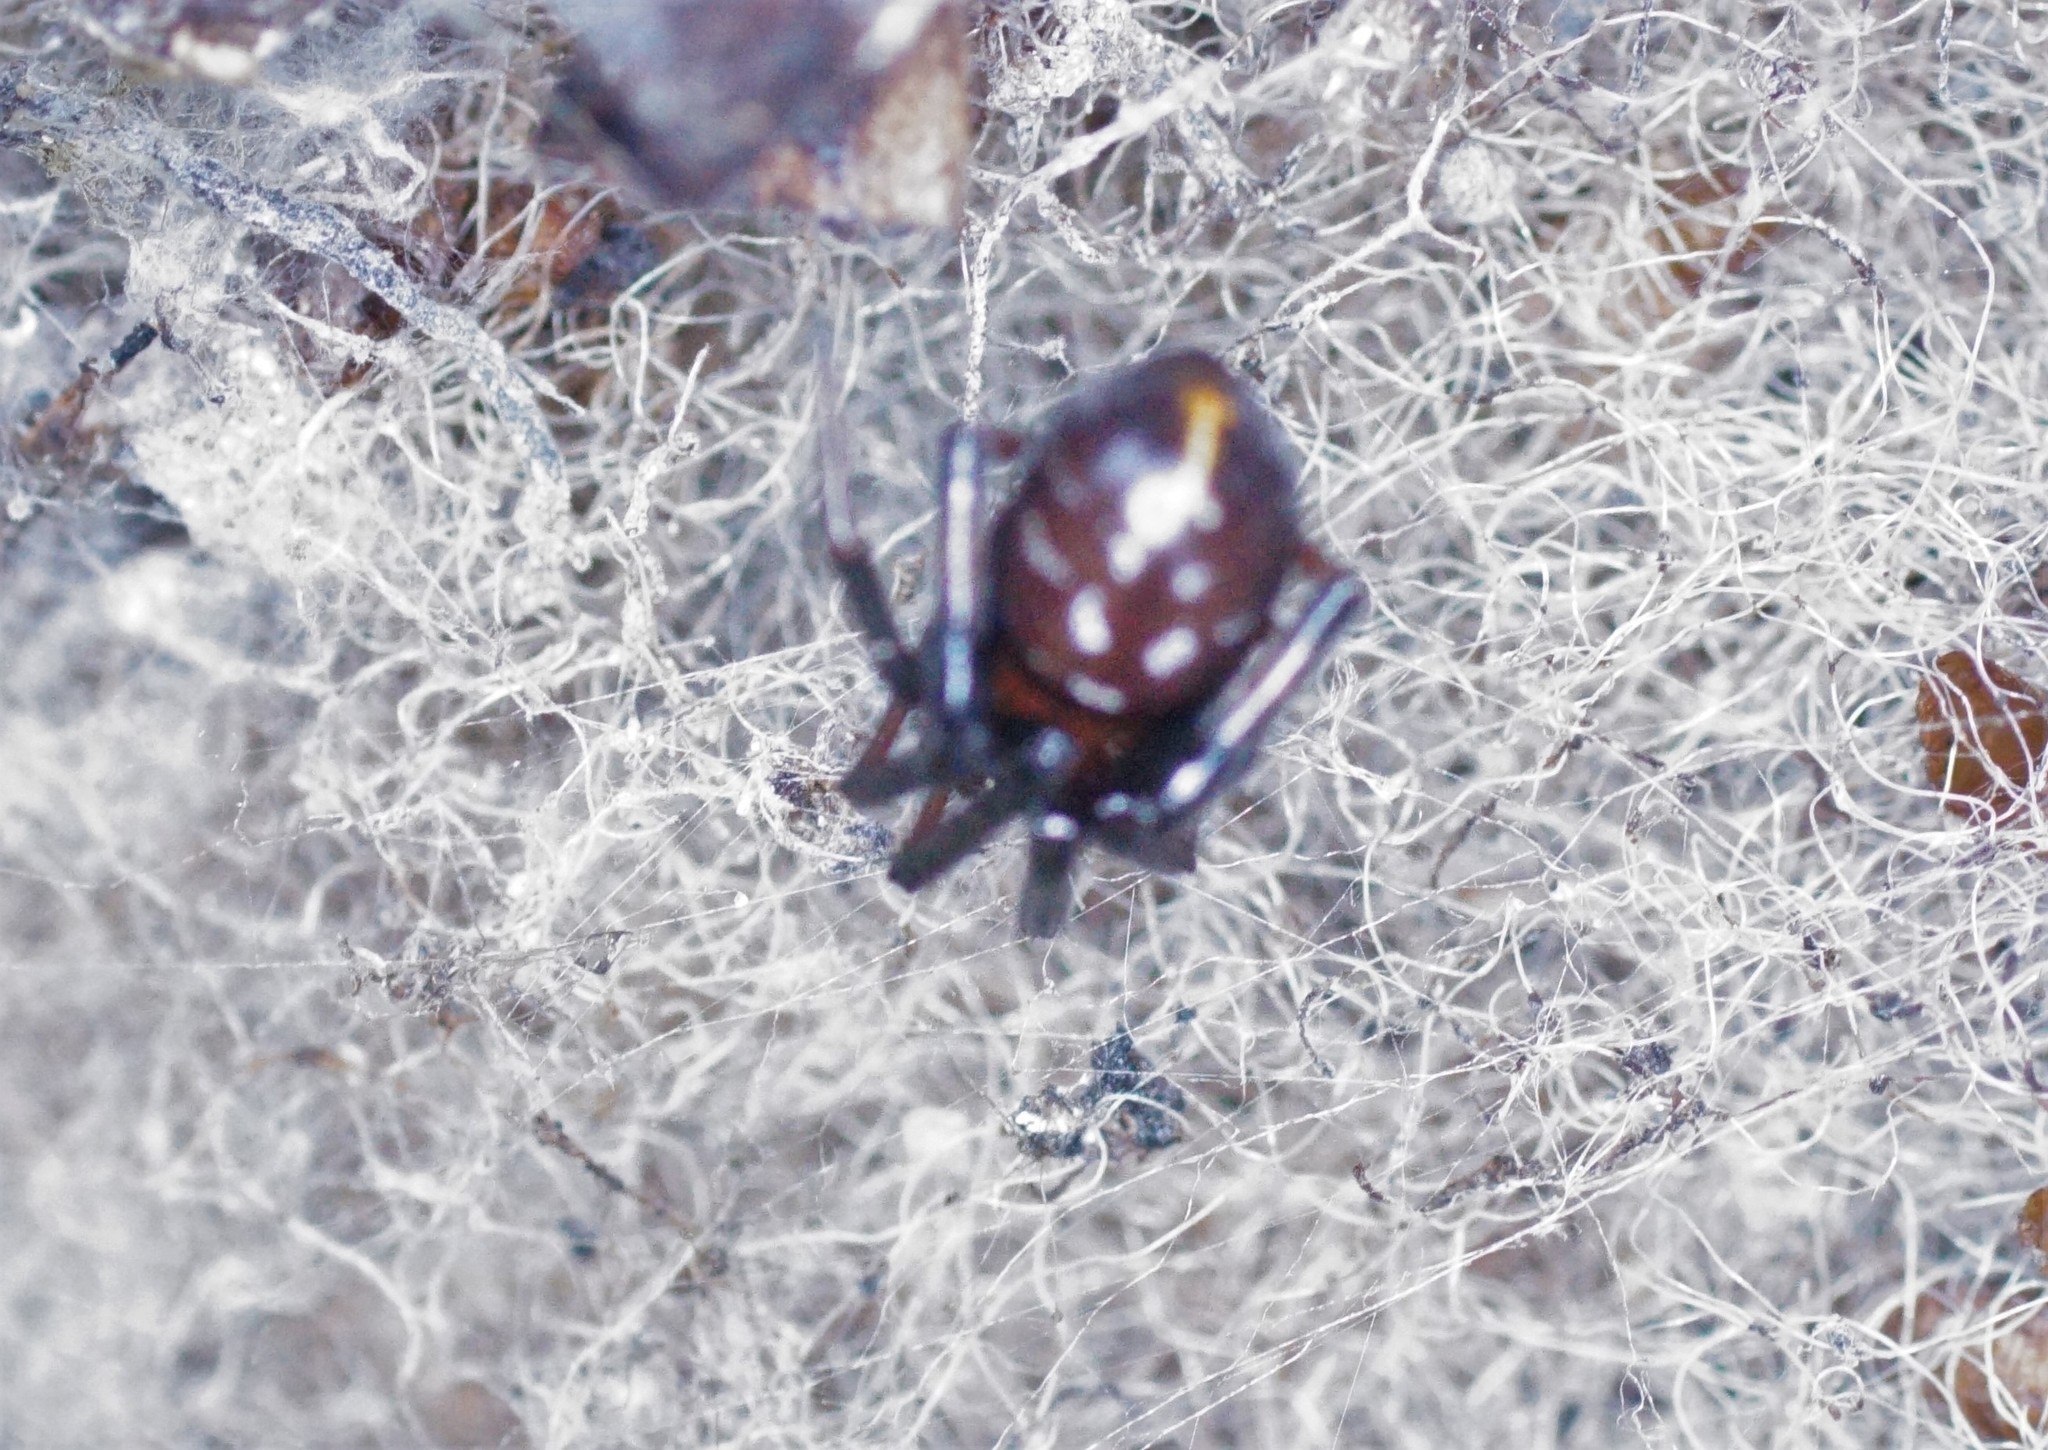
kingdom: Animalia
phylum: Arthropoda
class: Arachnida
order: Araneae
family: Theridiidae
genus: Steatoda
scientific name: Steatoda capensis
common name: Cobweb weaver
